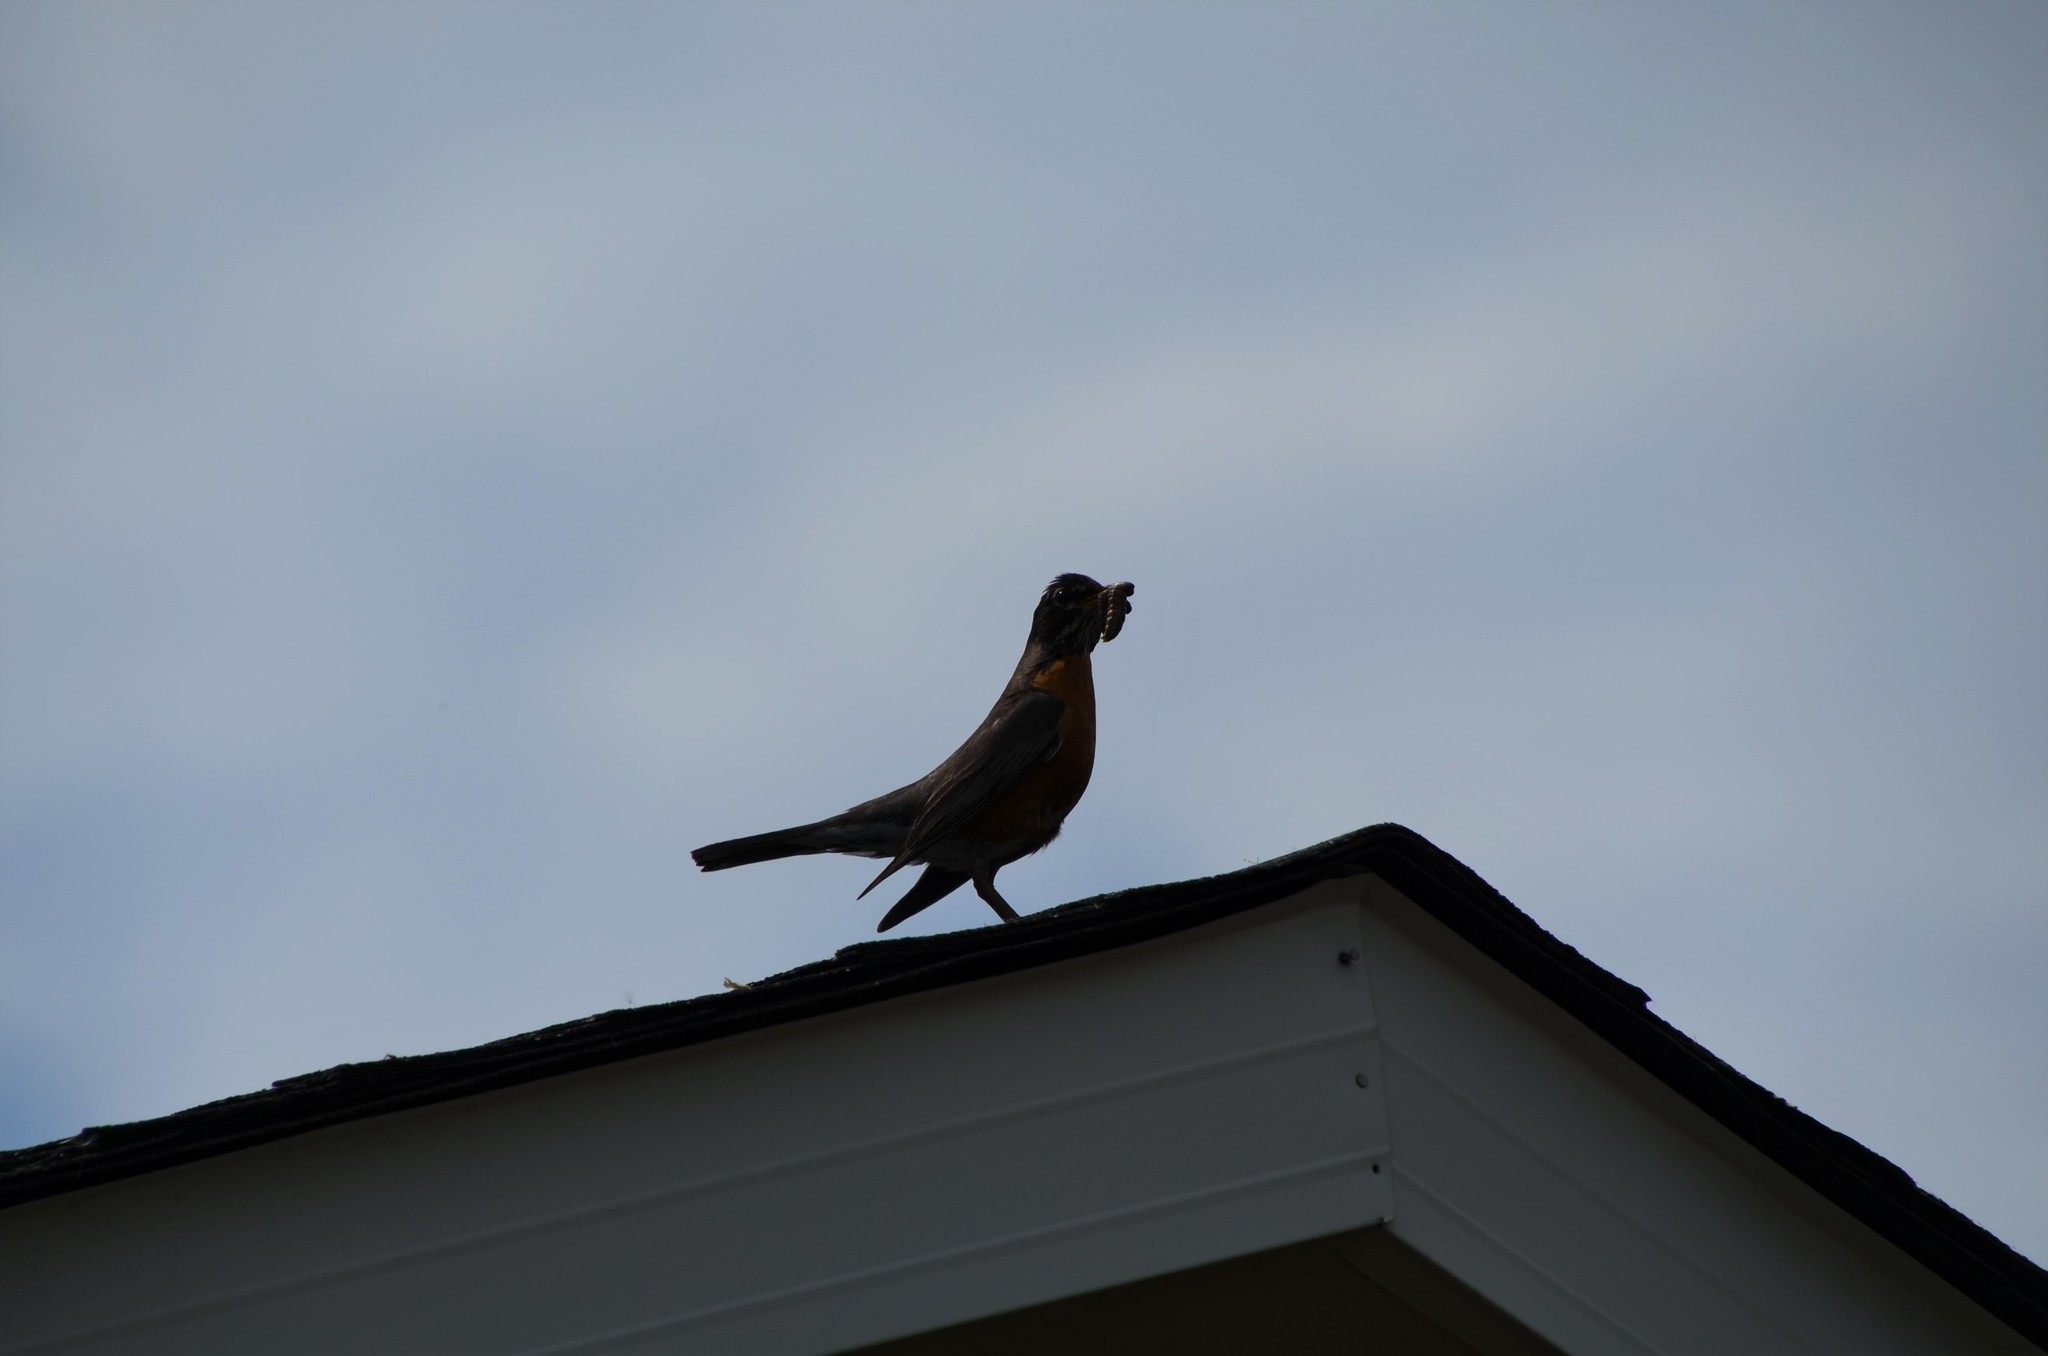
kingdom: Animalia
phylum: Chordata
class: Aves
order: Passeriformes
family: Turdidae
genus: Turdus
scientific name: Turdus migratorius
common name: American robin
